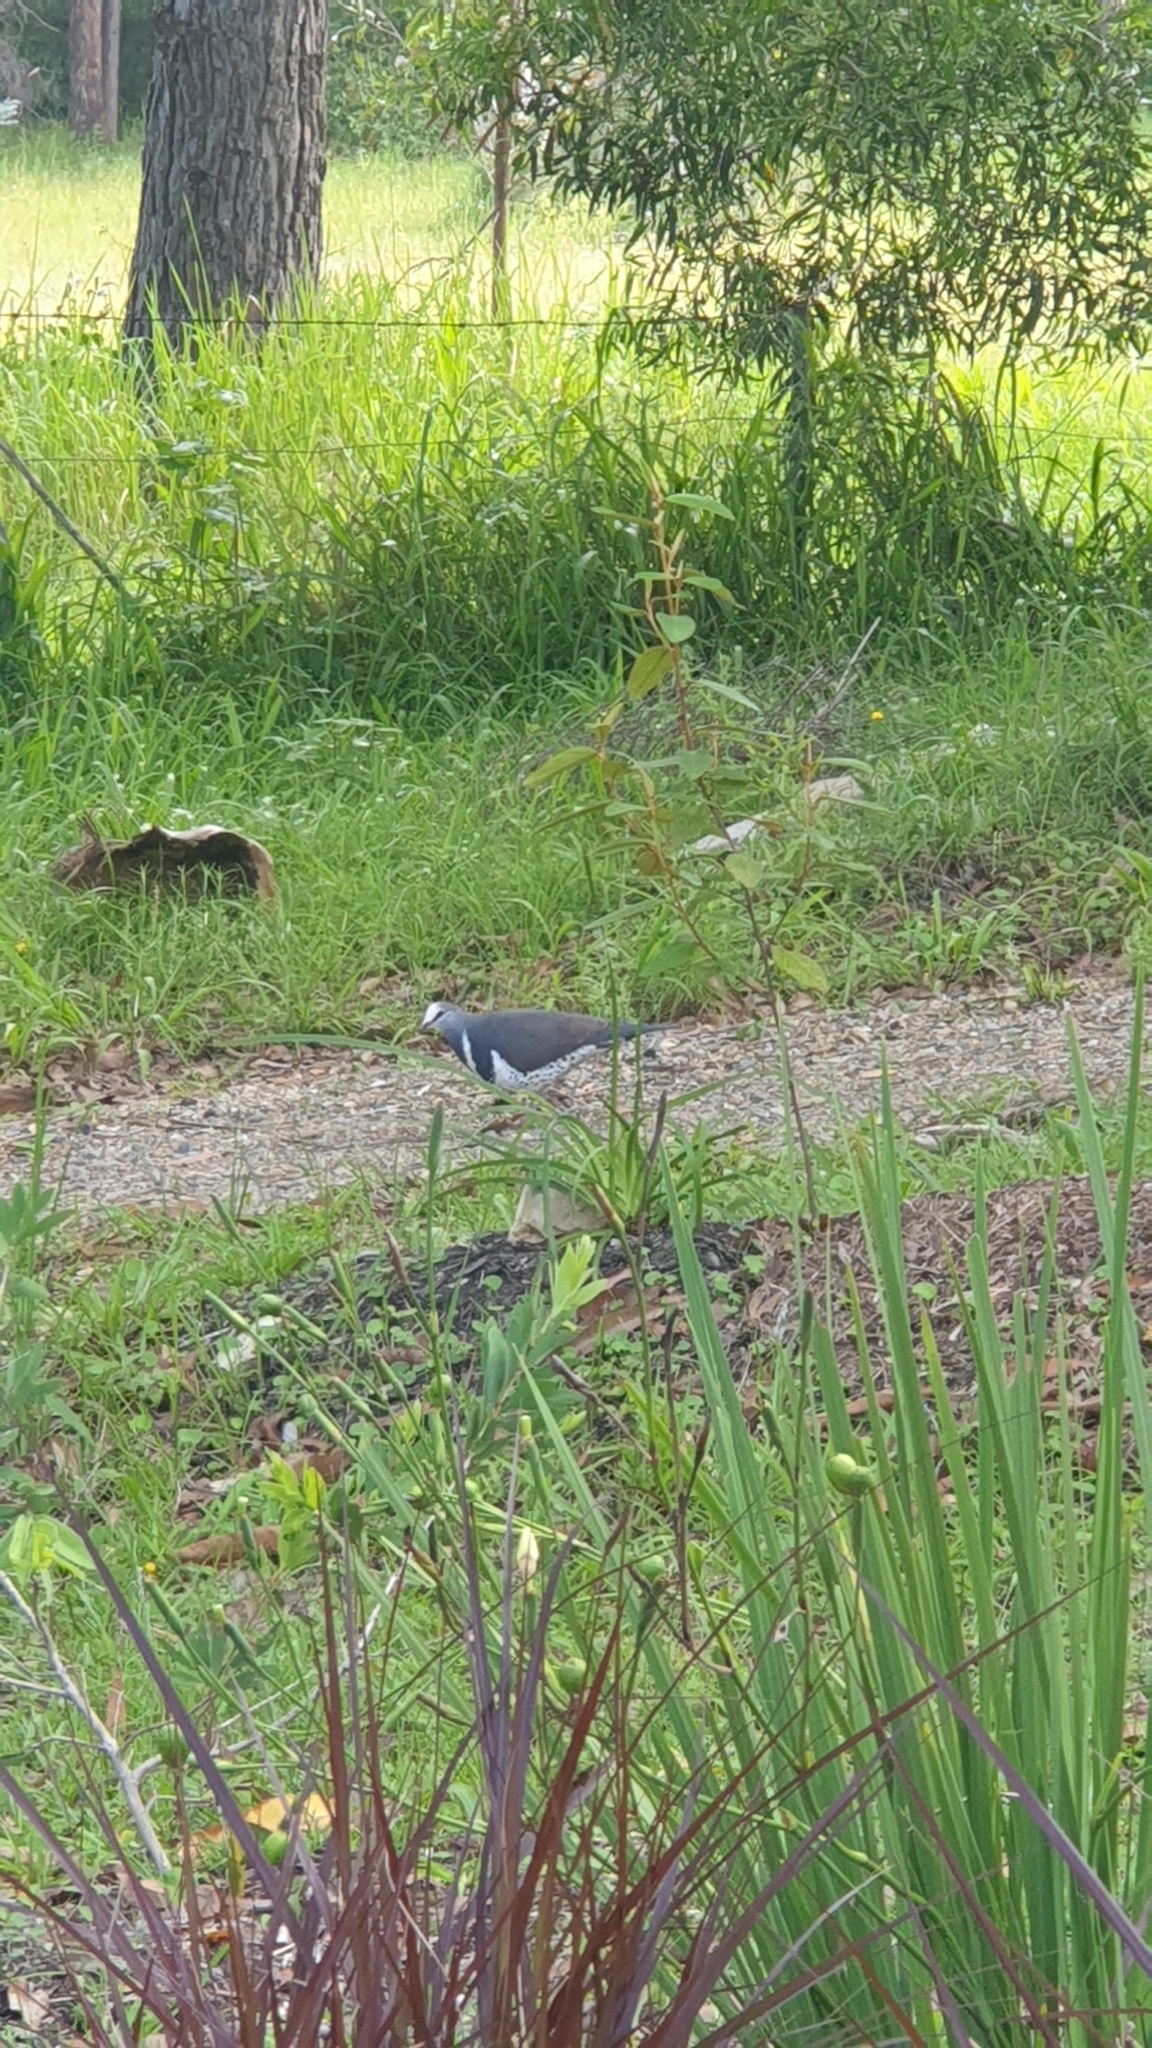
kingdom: Animalia
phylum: Chordata
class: Aves
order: Columbiformes
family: Columbidae
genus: Leucosarcia
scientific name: Leucosarcia melanoleuca
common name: Wonga pigeon
